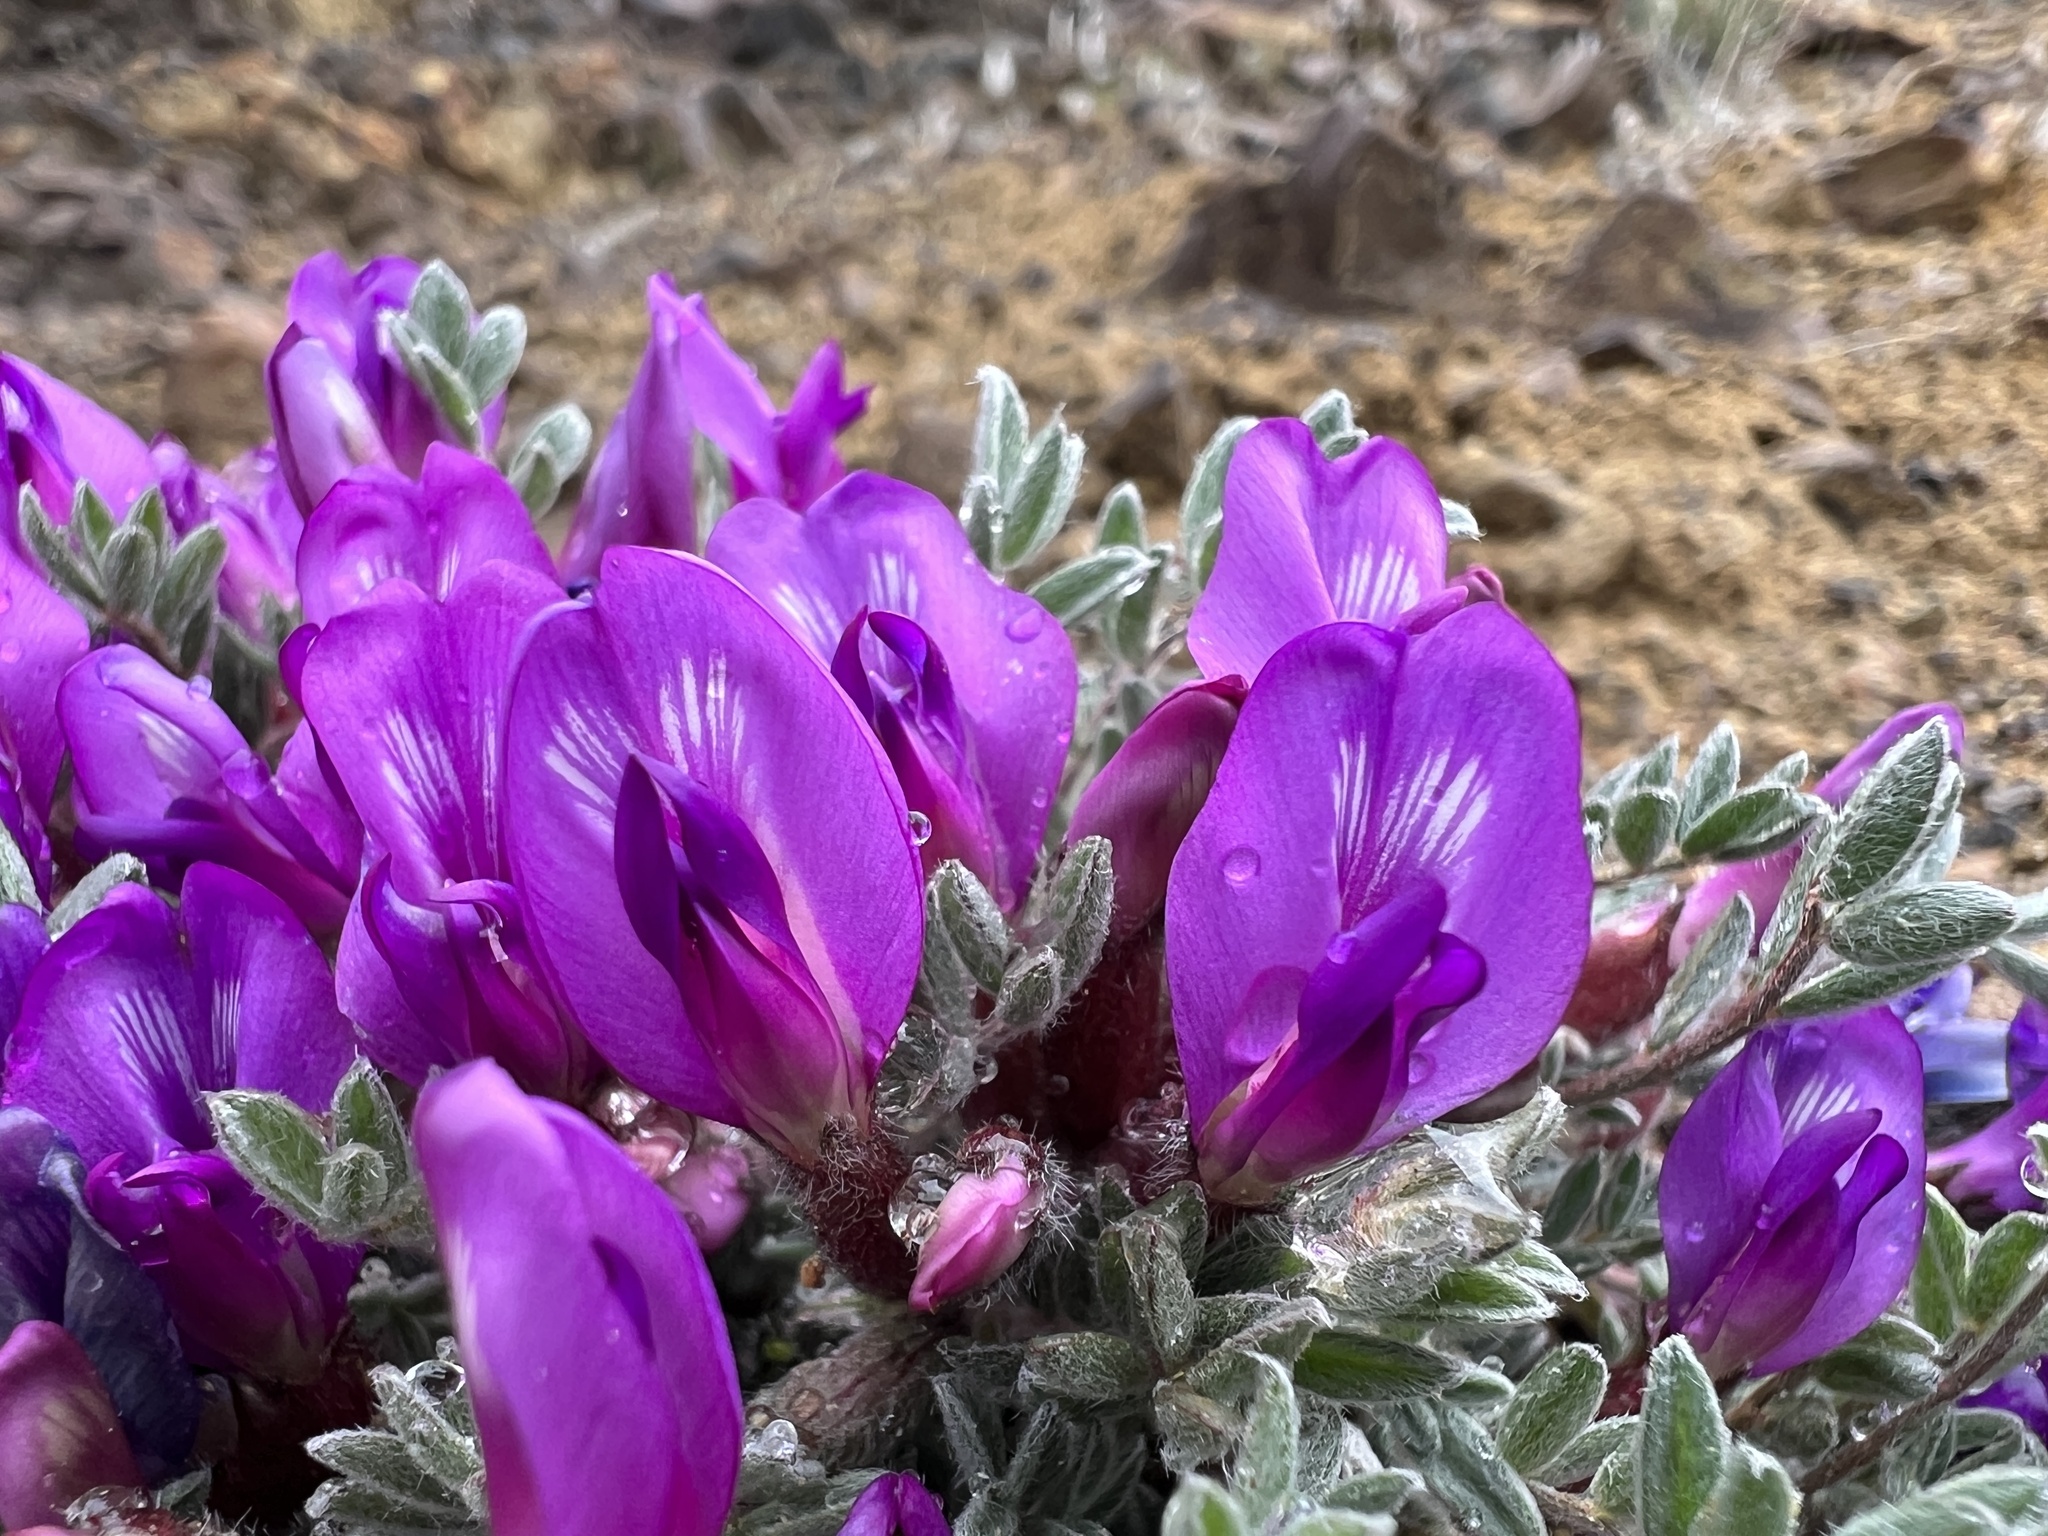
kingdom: Plantae
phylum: Tracheophyta
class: Magnoliopsida
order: Fabales
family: Fabaceae
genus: Astragalus
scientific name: Astragalus purshii
